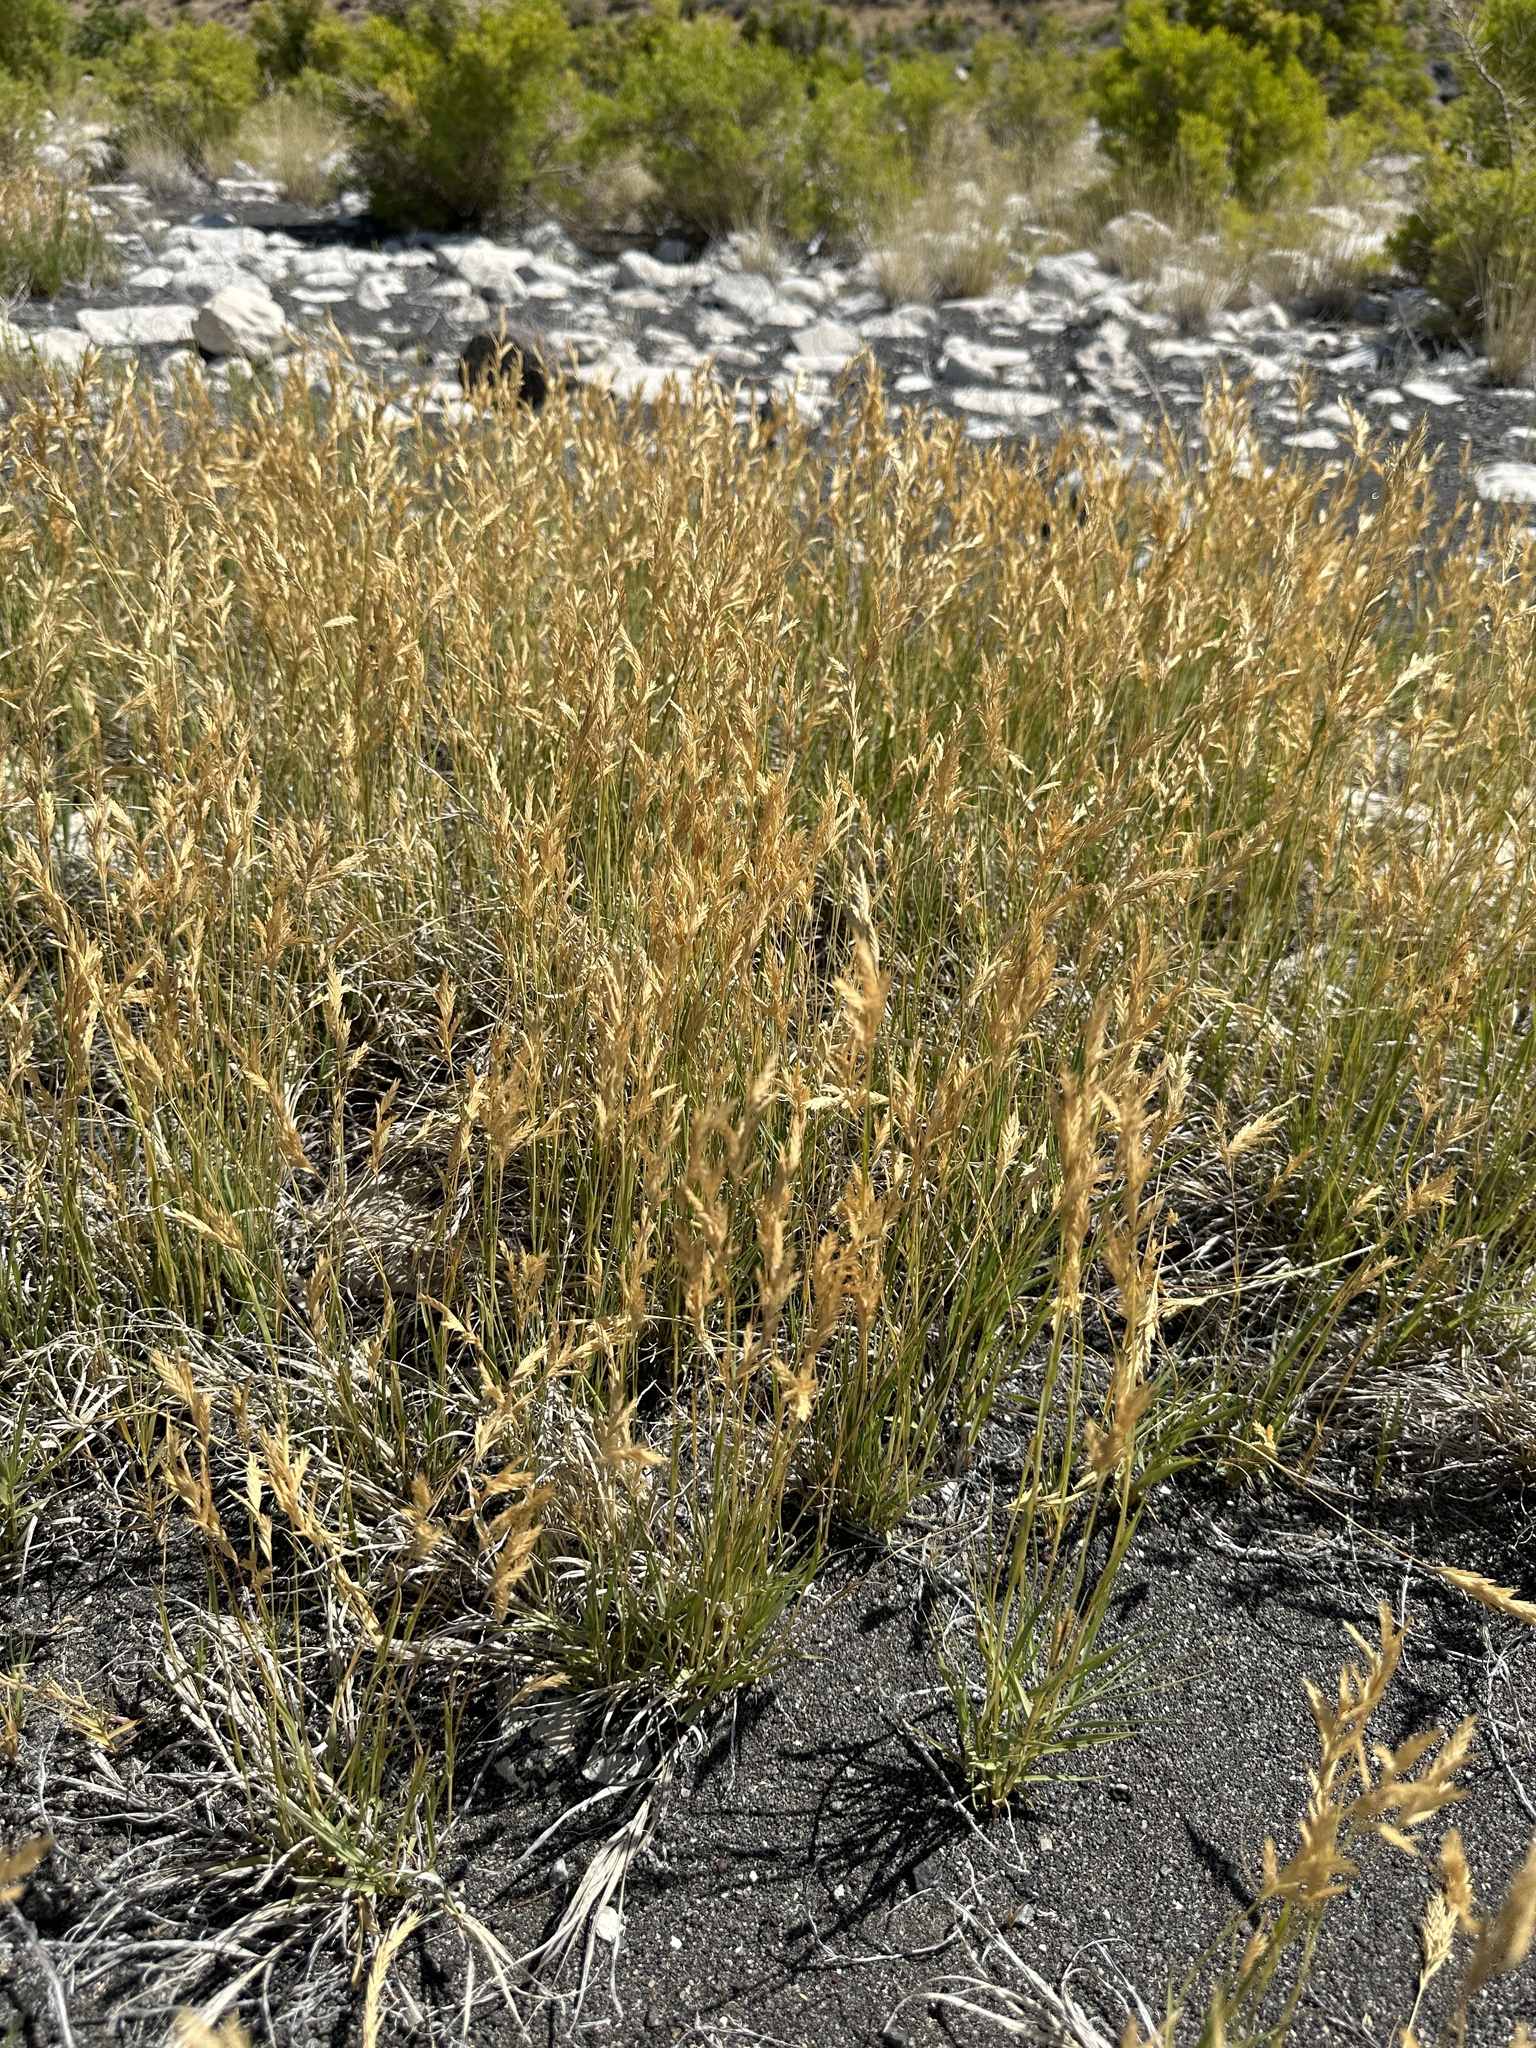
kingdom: Plantae
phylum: Tracheophyta
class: Liliopsida
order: Poales
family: Poaceae
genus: Distichlis
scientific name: Distichlis spicata
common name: Saltgrass
